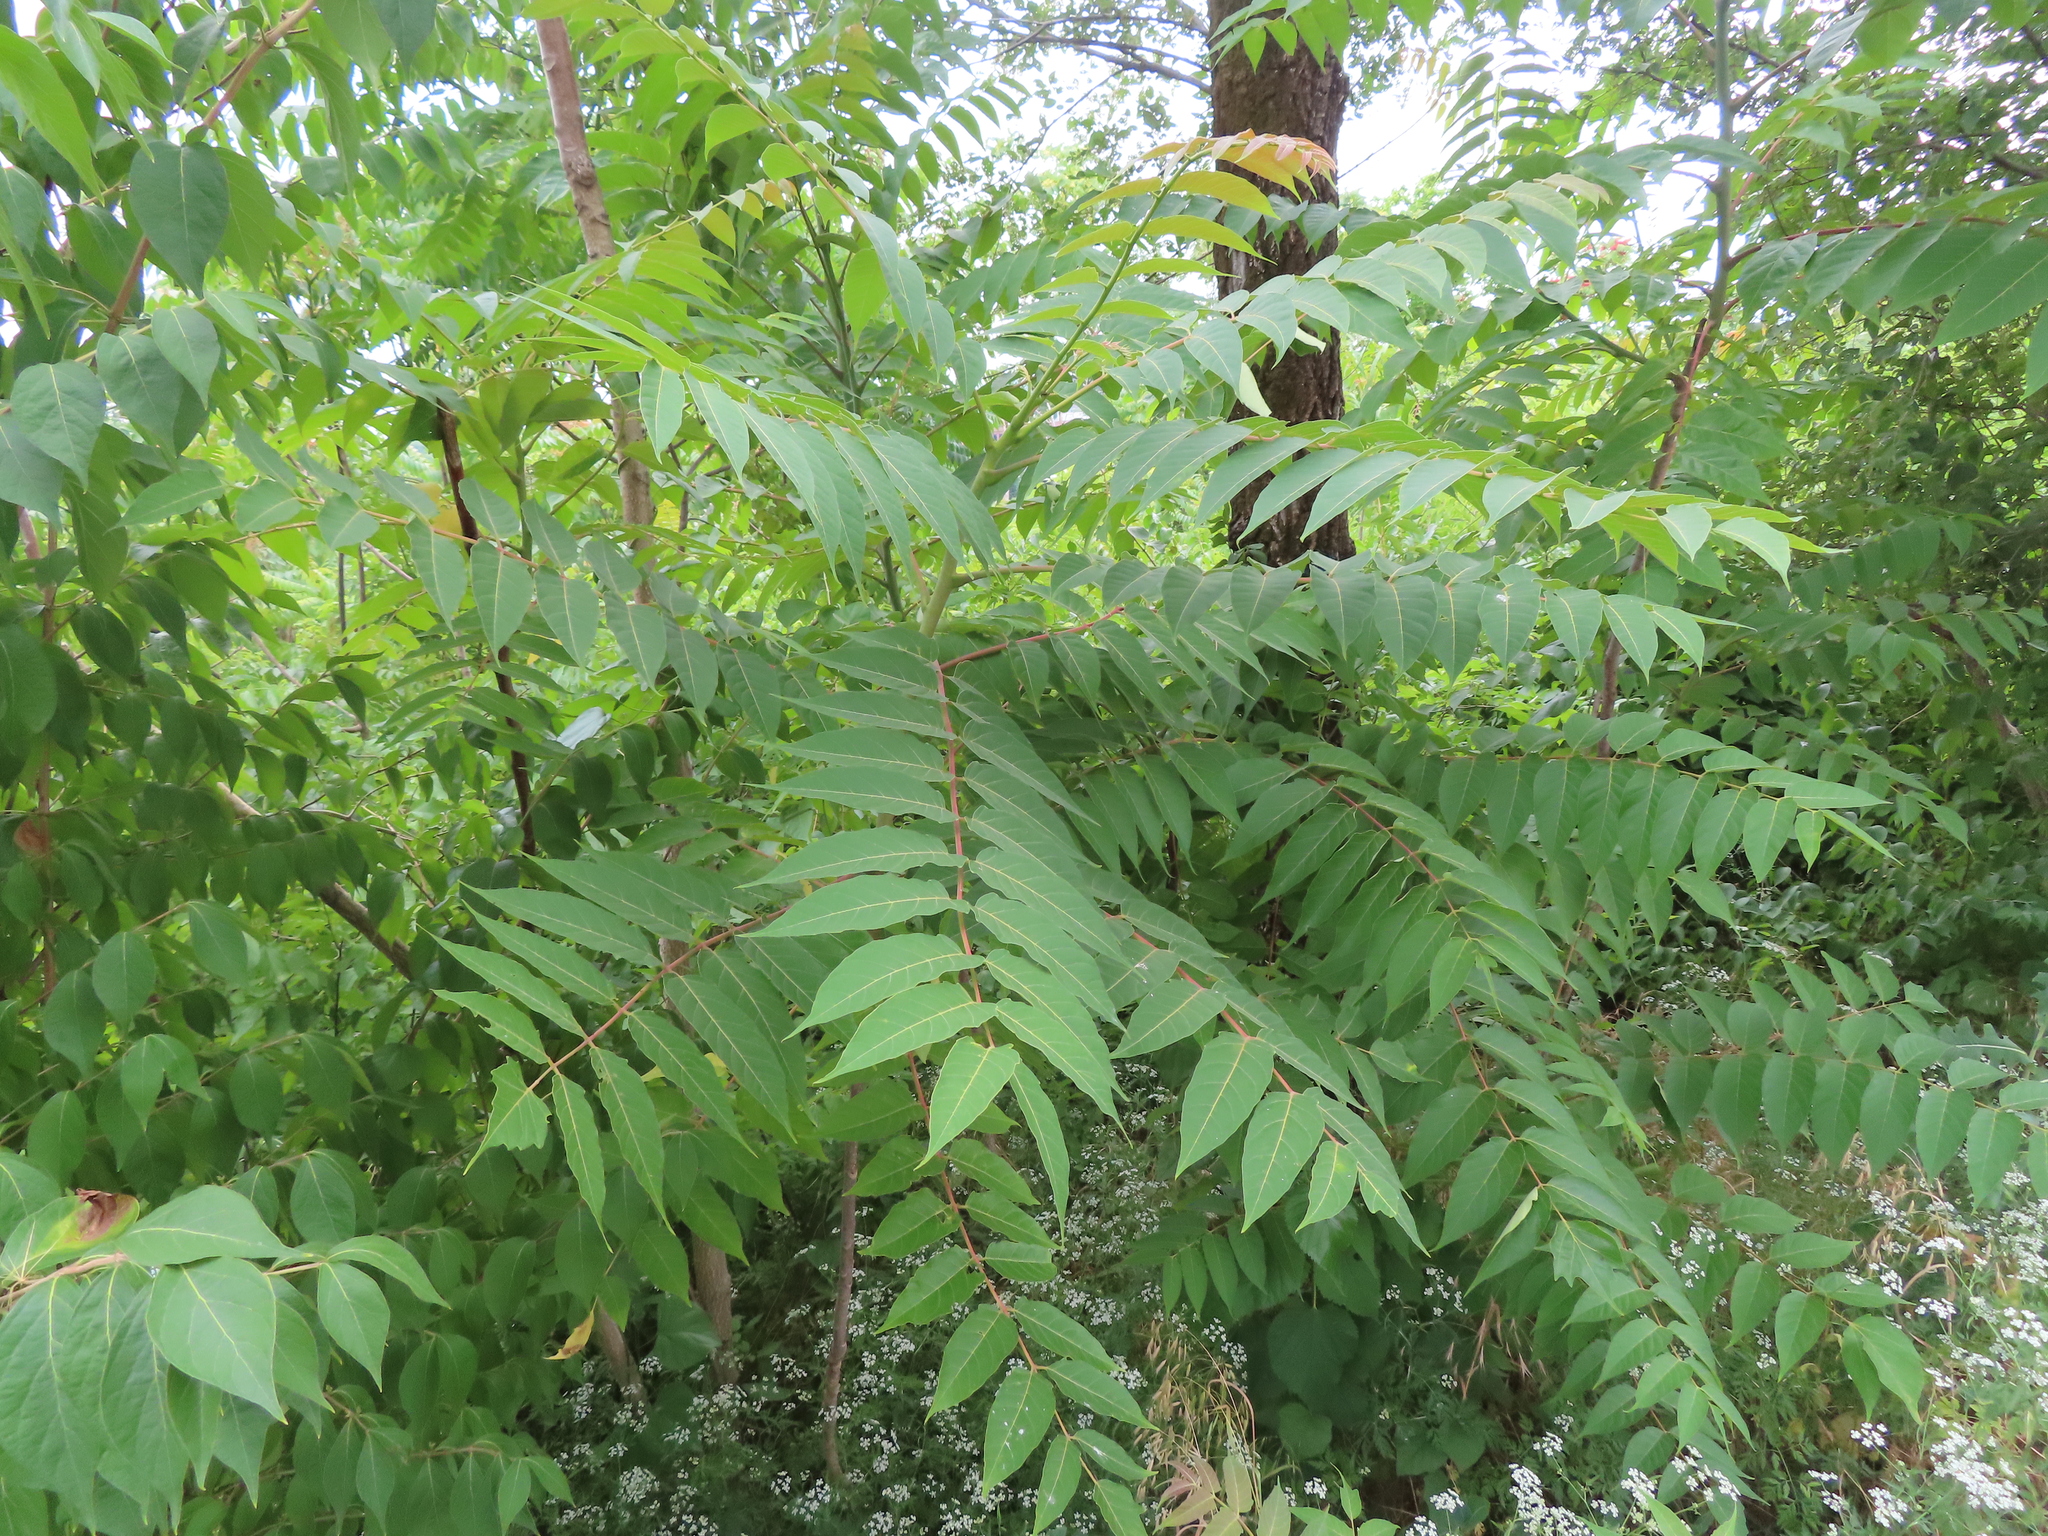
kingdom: Plantae
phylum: Tracheophyta
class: Magnoliopsida
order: Sapindales
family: Simaroubaceae
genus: Ailanthus
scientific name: Ailanthus altissima
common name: Tree-of-heaven
